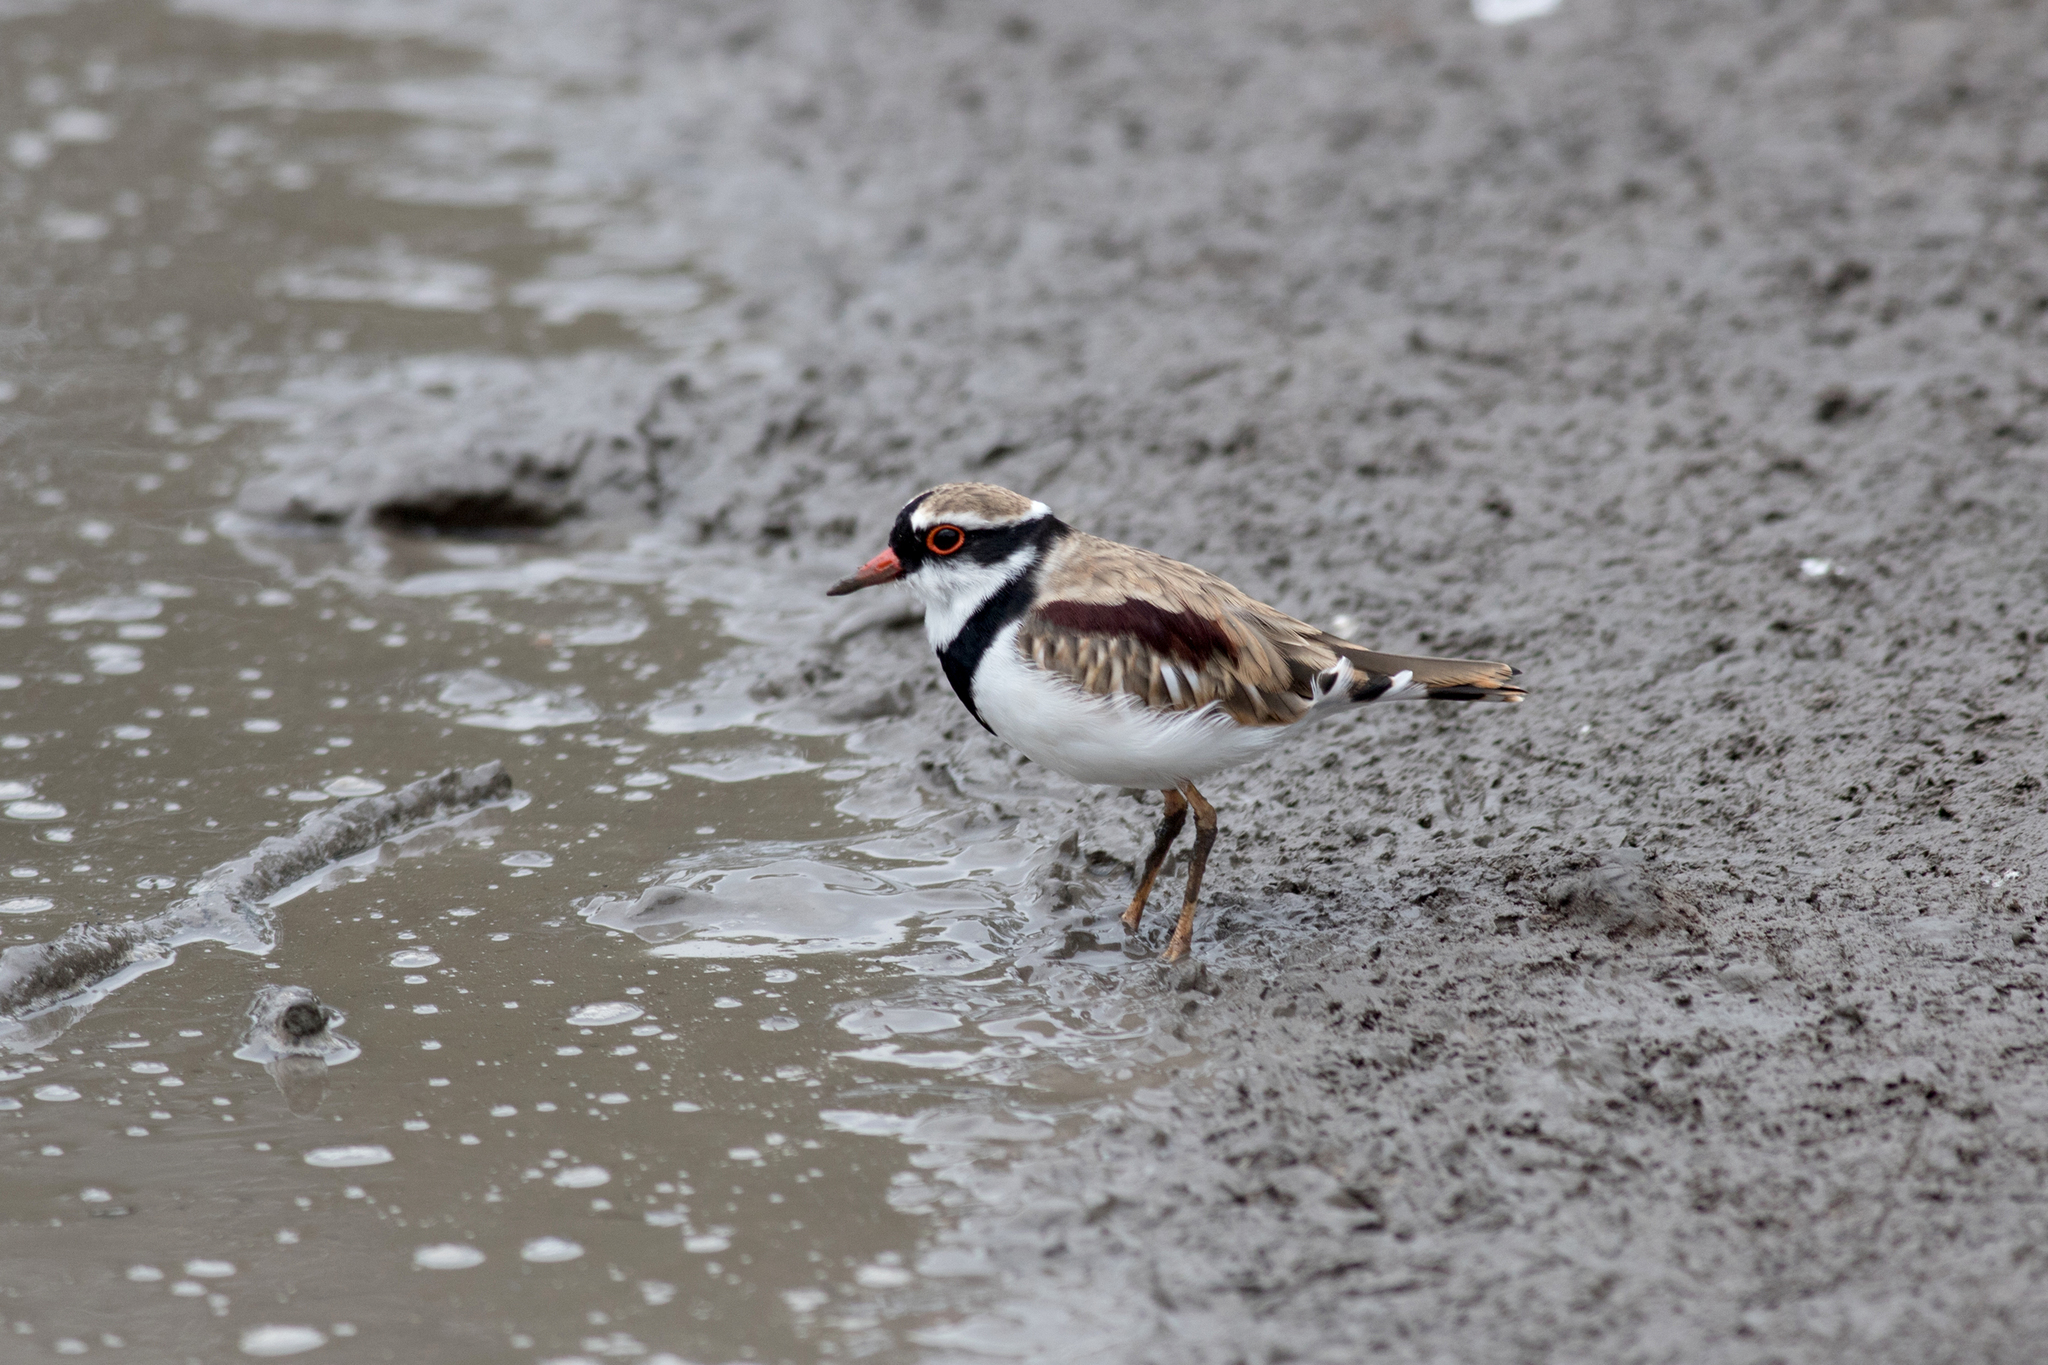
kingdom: Animalia
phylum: Chordata
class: Aves
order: Charadriiformes
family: Charadriidae
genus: Elseyornis
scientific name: Elseyornis melanops
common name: Black-fronted dotterel
